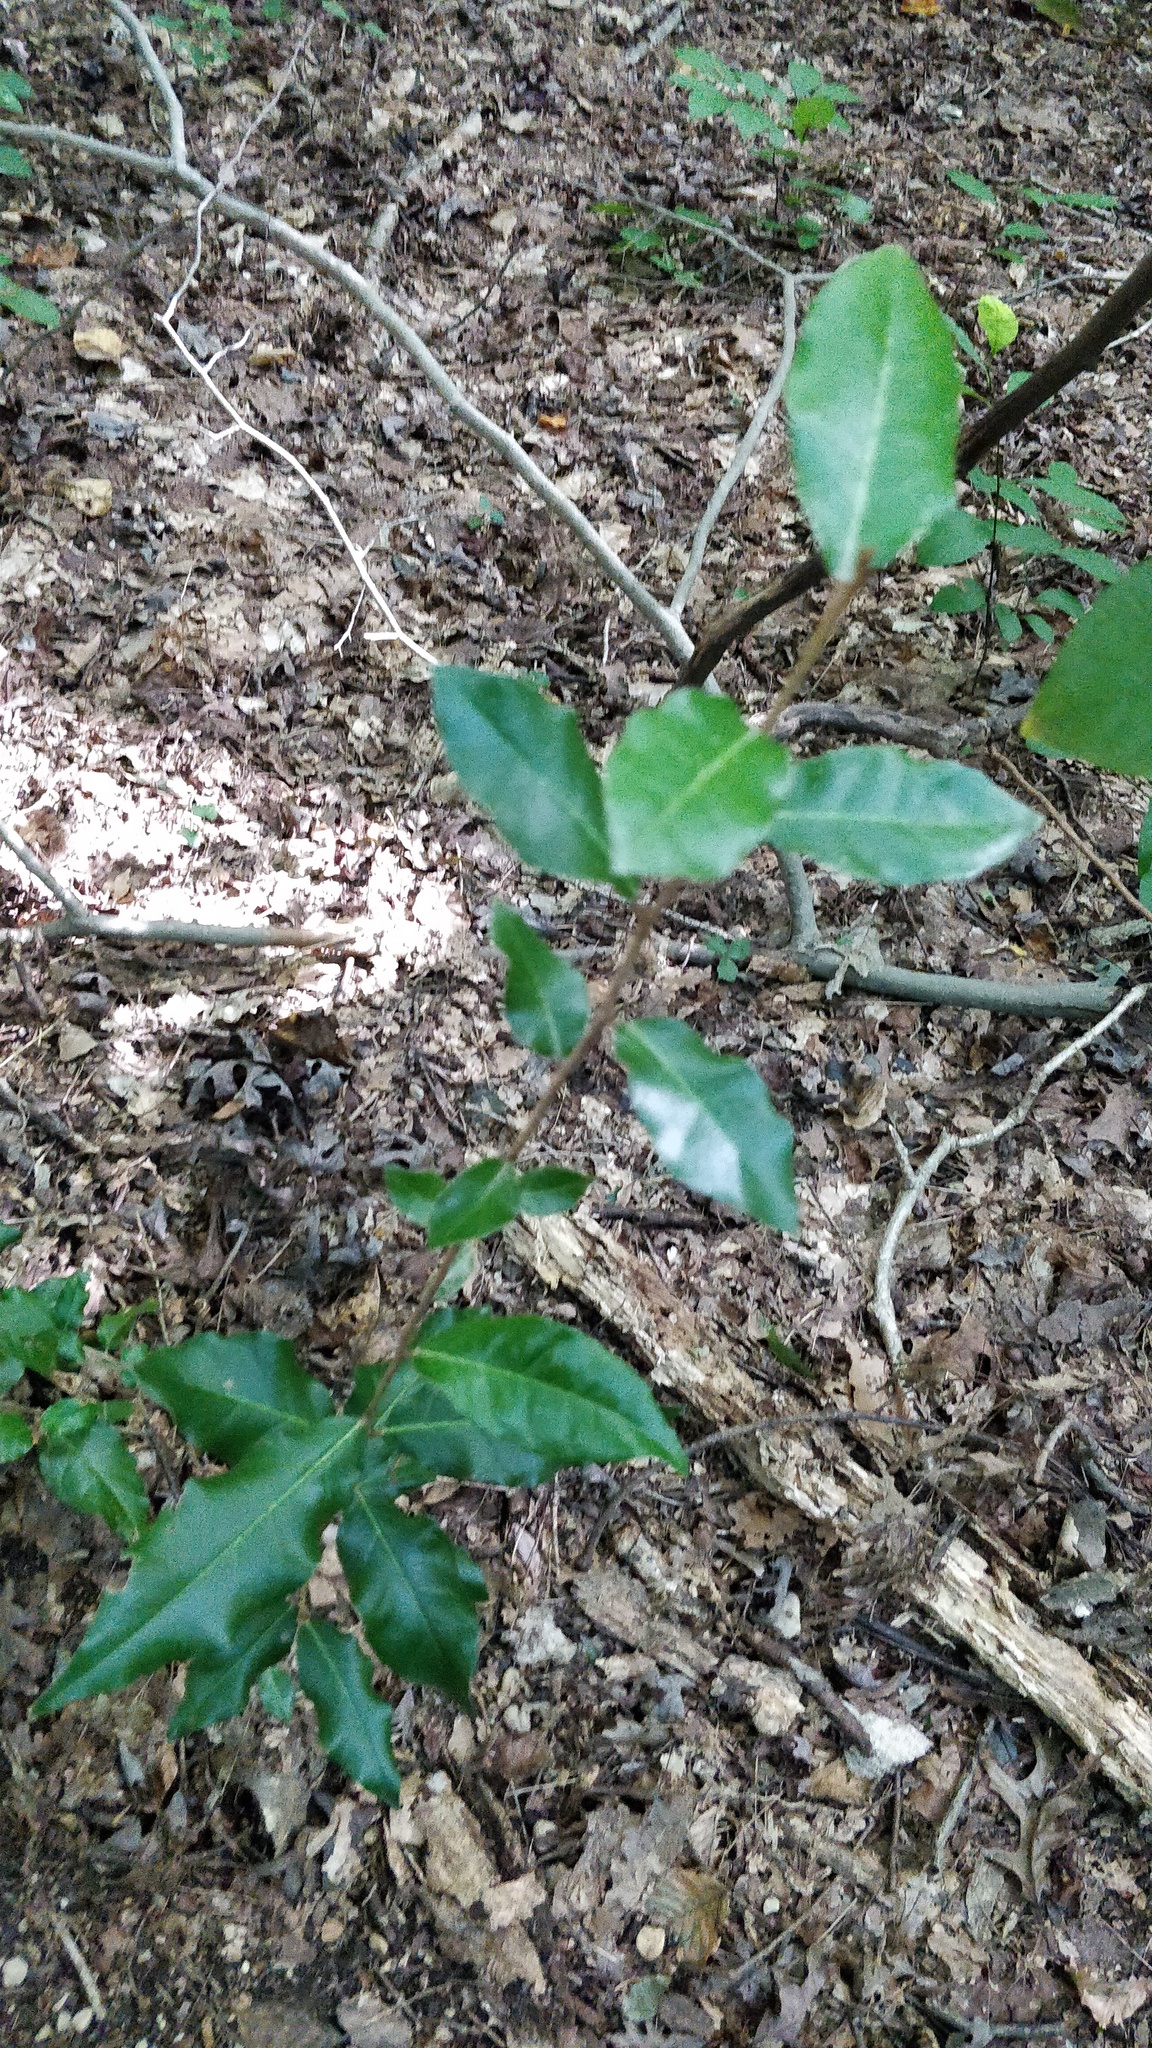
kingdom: Plantae
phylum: Tracheophyta
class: Magnoliopsida
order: Rosales
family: Elaeagnaceae
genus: Elaeagnus
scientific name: Elaeagnus pungens
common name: Spiny oleaster
